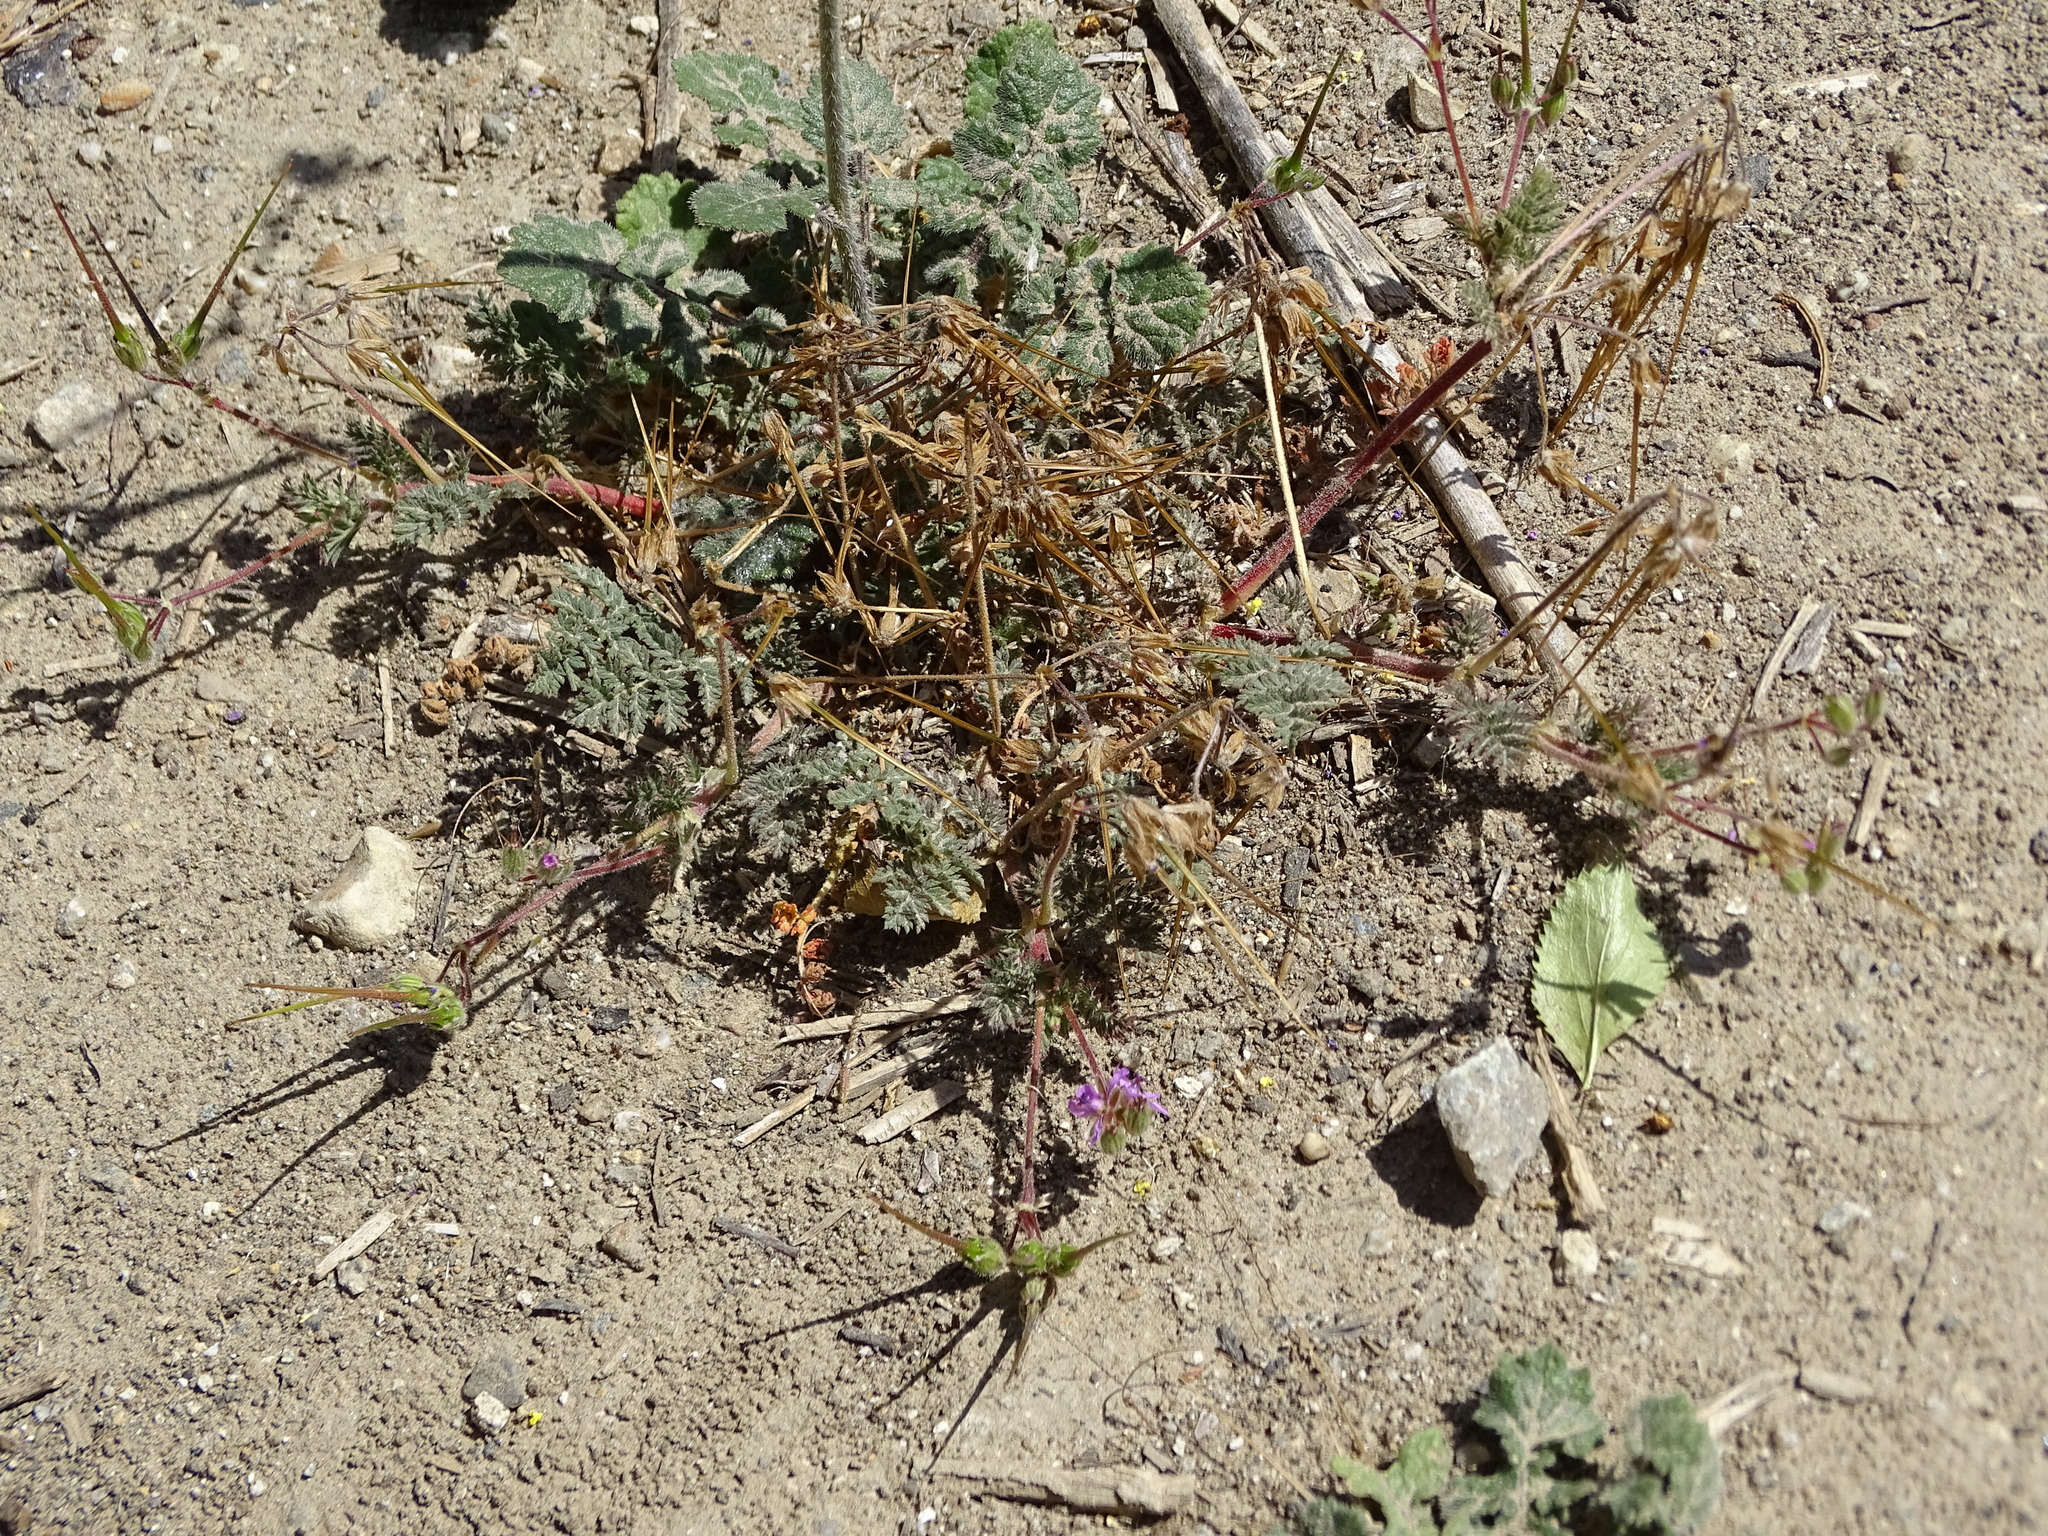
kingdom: Plantae
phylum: Tracheophyta
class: Magnoliopsida
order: Geraniales
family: Geraniaceae
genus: Erodium
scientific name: Erodium cicutarium
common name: Common stork's-bill
